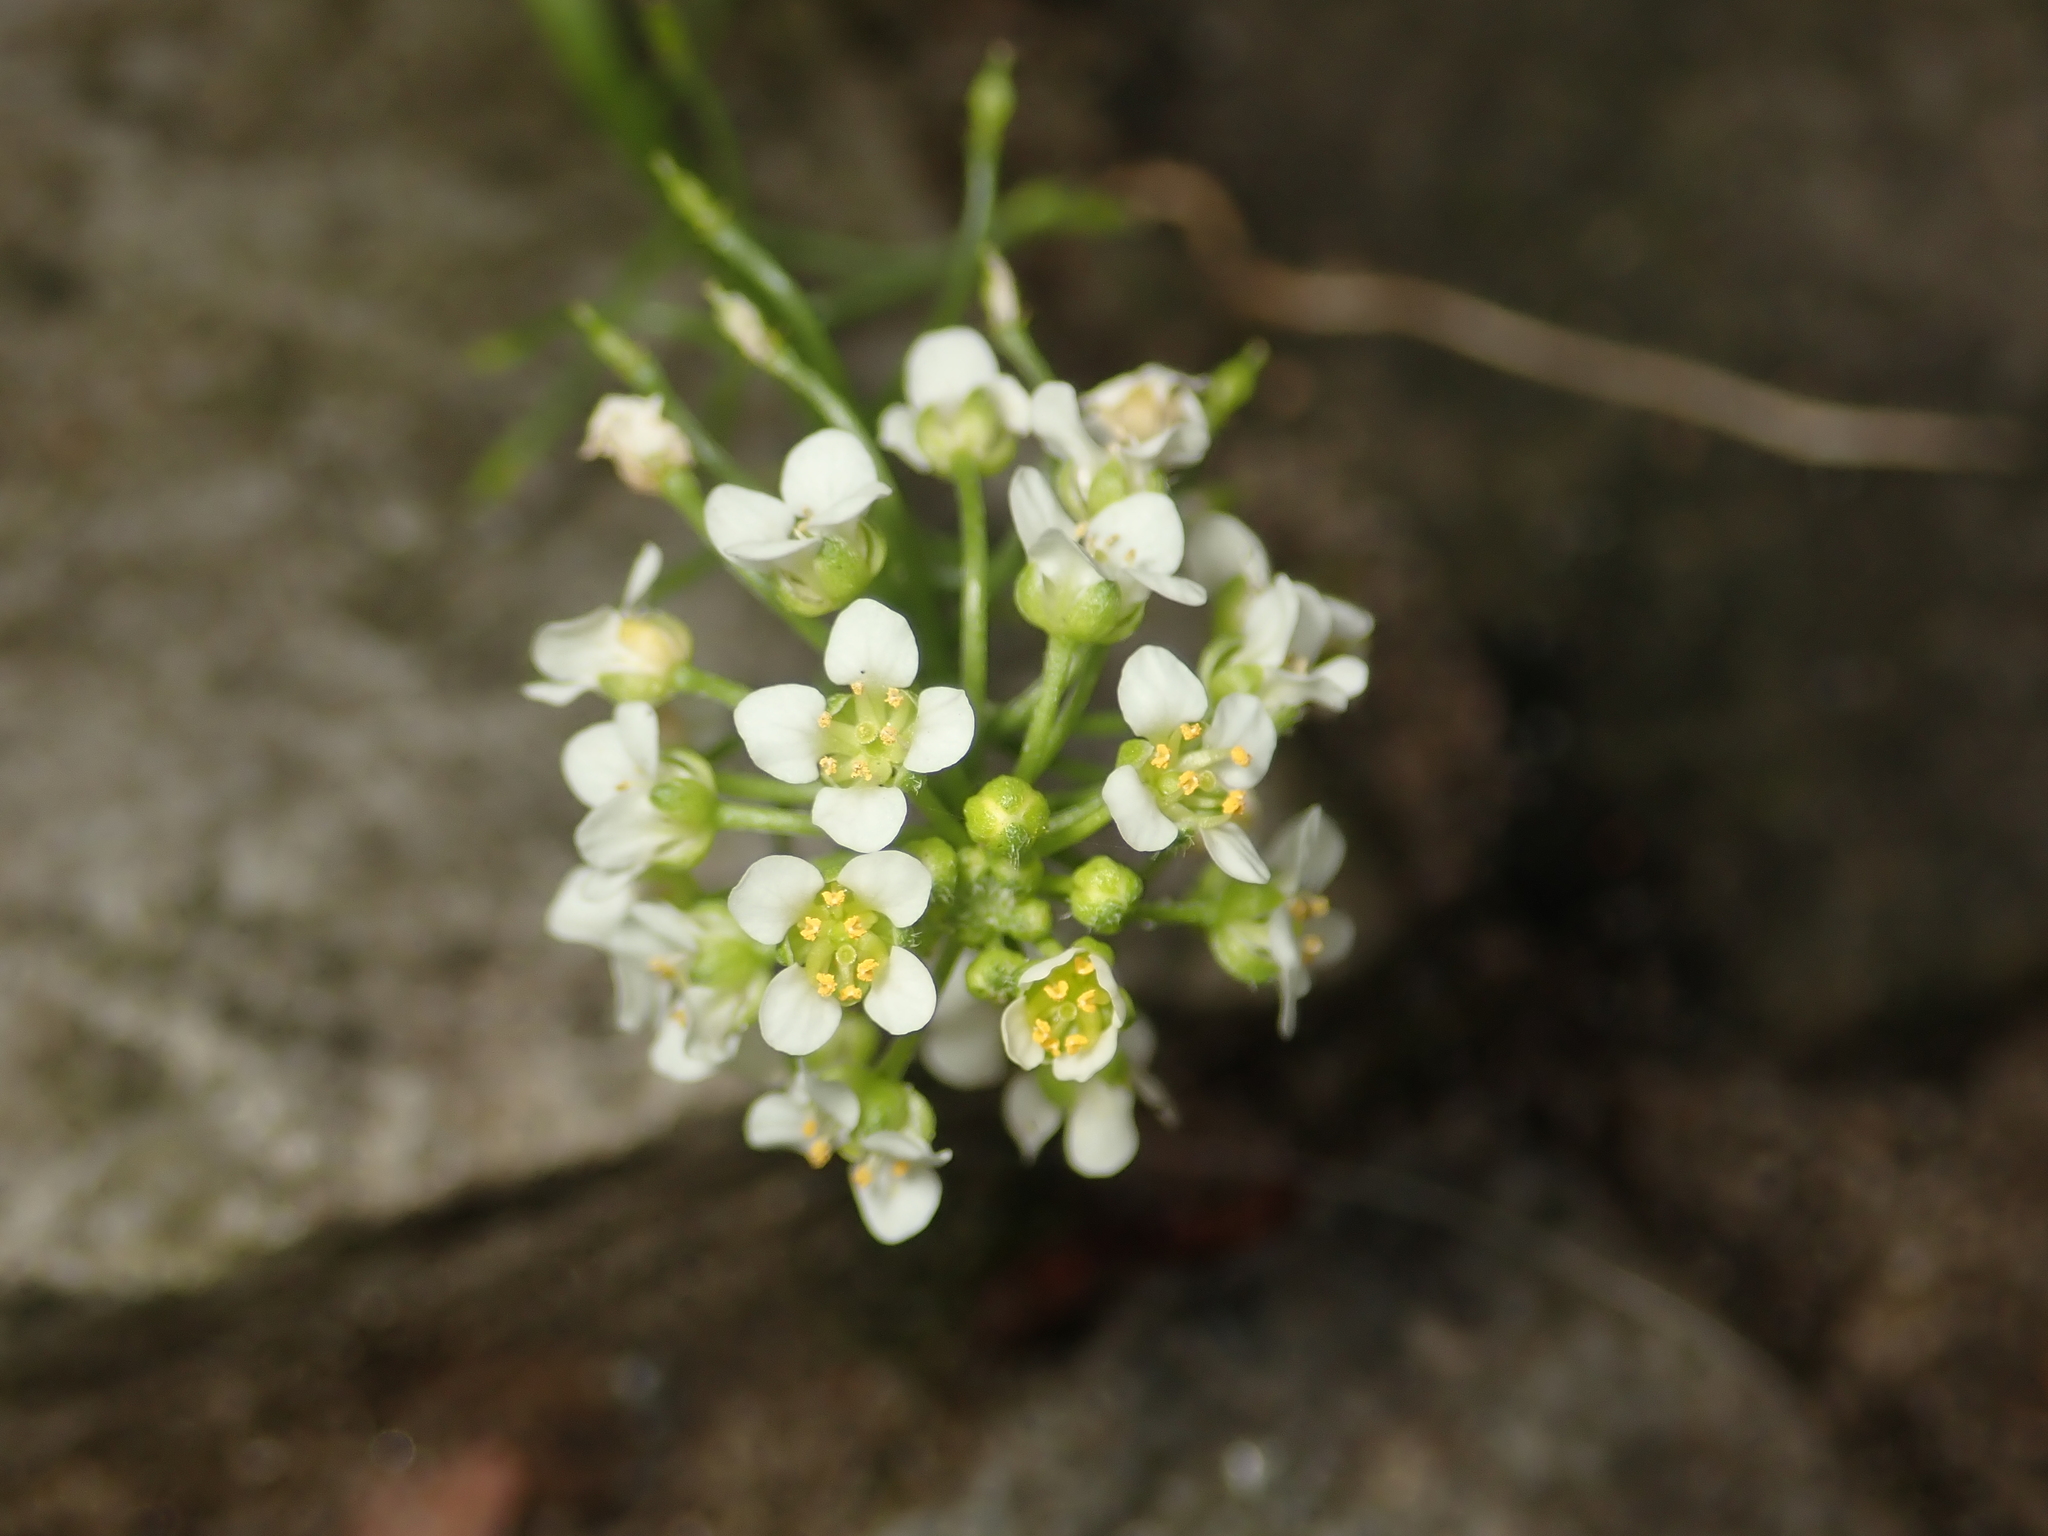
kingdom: Plantae
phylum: Tracheophyta
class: Magnoliopsida
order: Brassicales
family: Brassicaceae
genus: Lobularia
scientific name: Lobularia maritima
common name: Sweet alison
